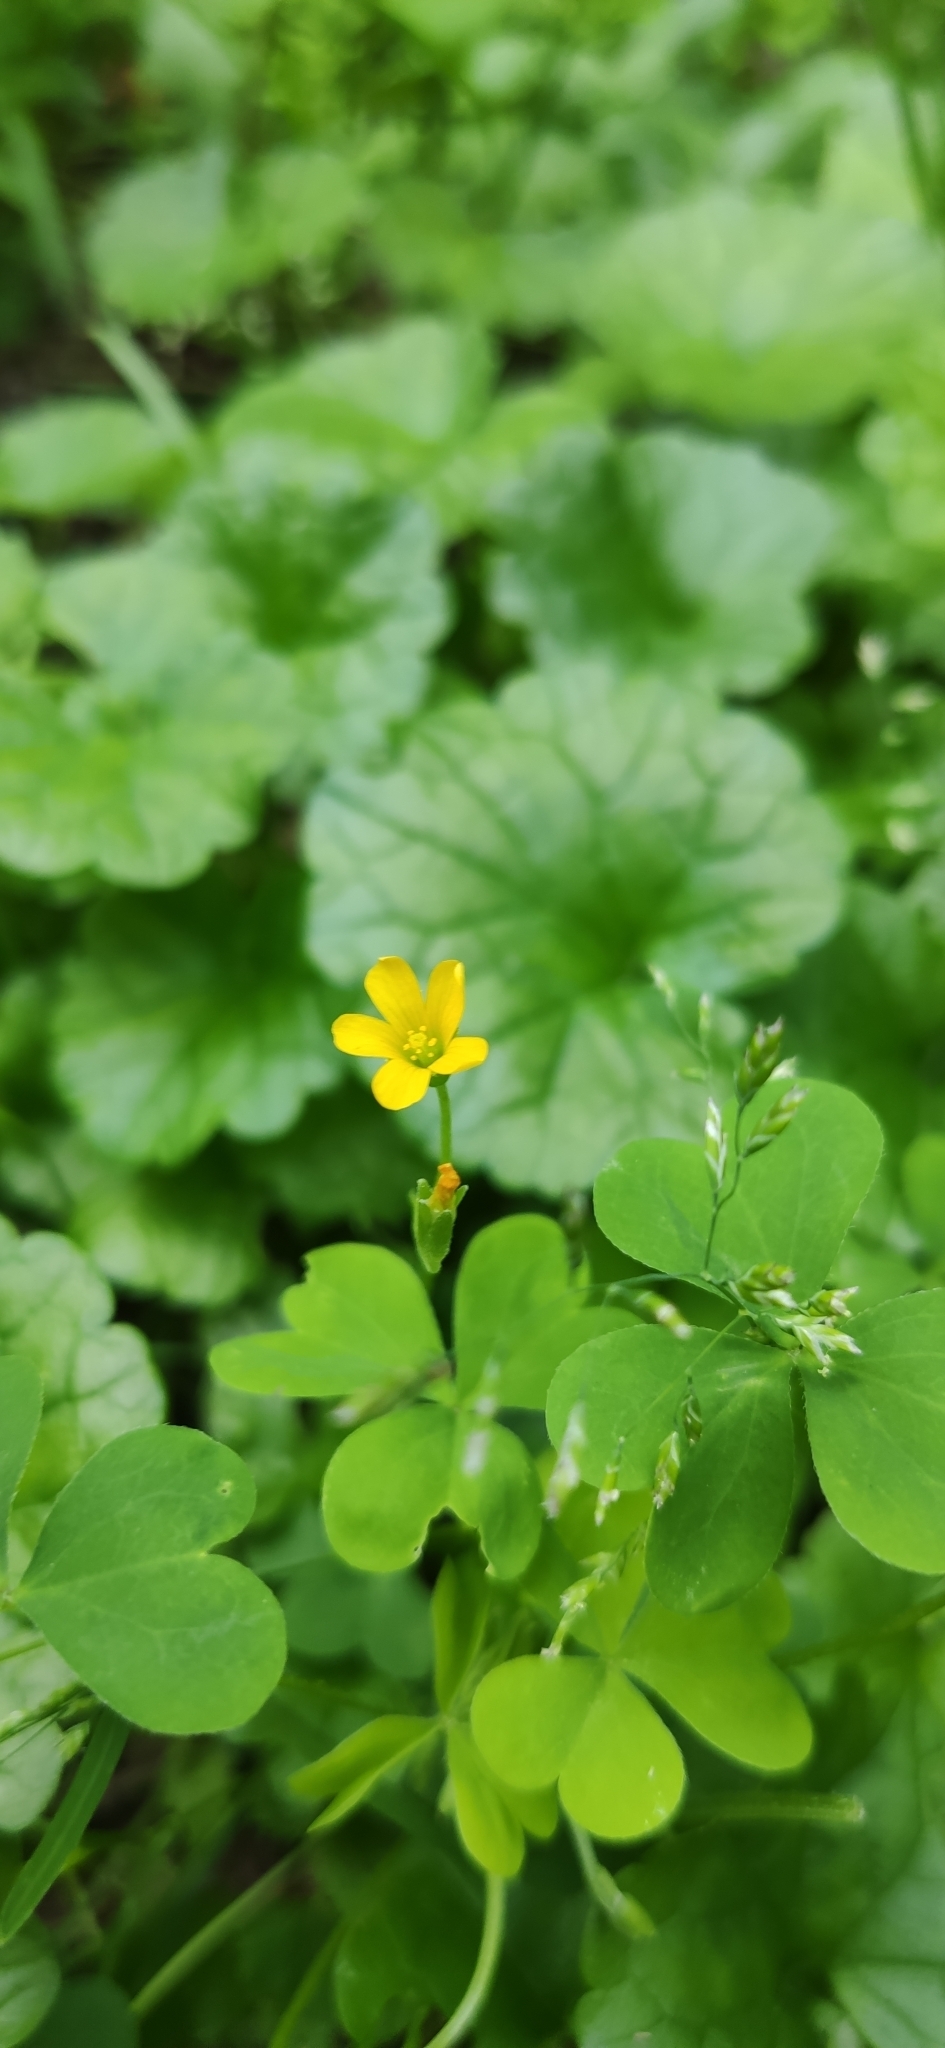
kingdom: Plantae
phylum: Tracheophyta
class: Magnoliopsida
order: Oxalidales
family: Oxalidaceae
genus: Oxalis
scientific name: Oxalis stricta
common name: Upright yellow-sorrel
